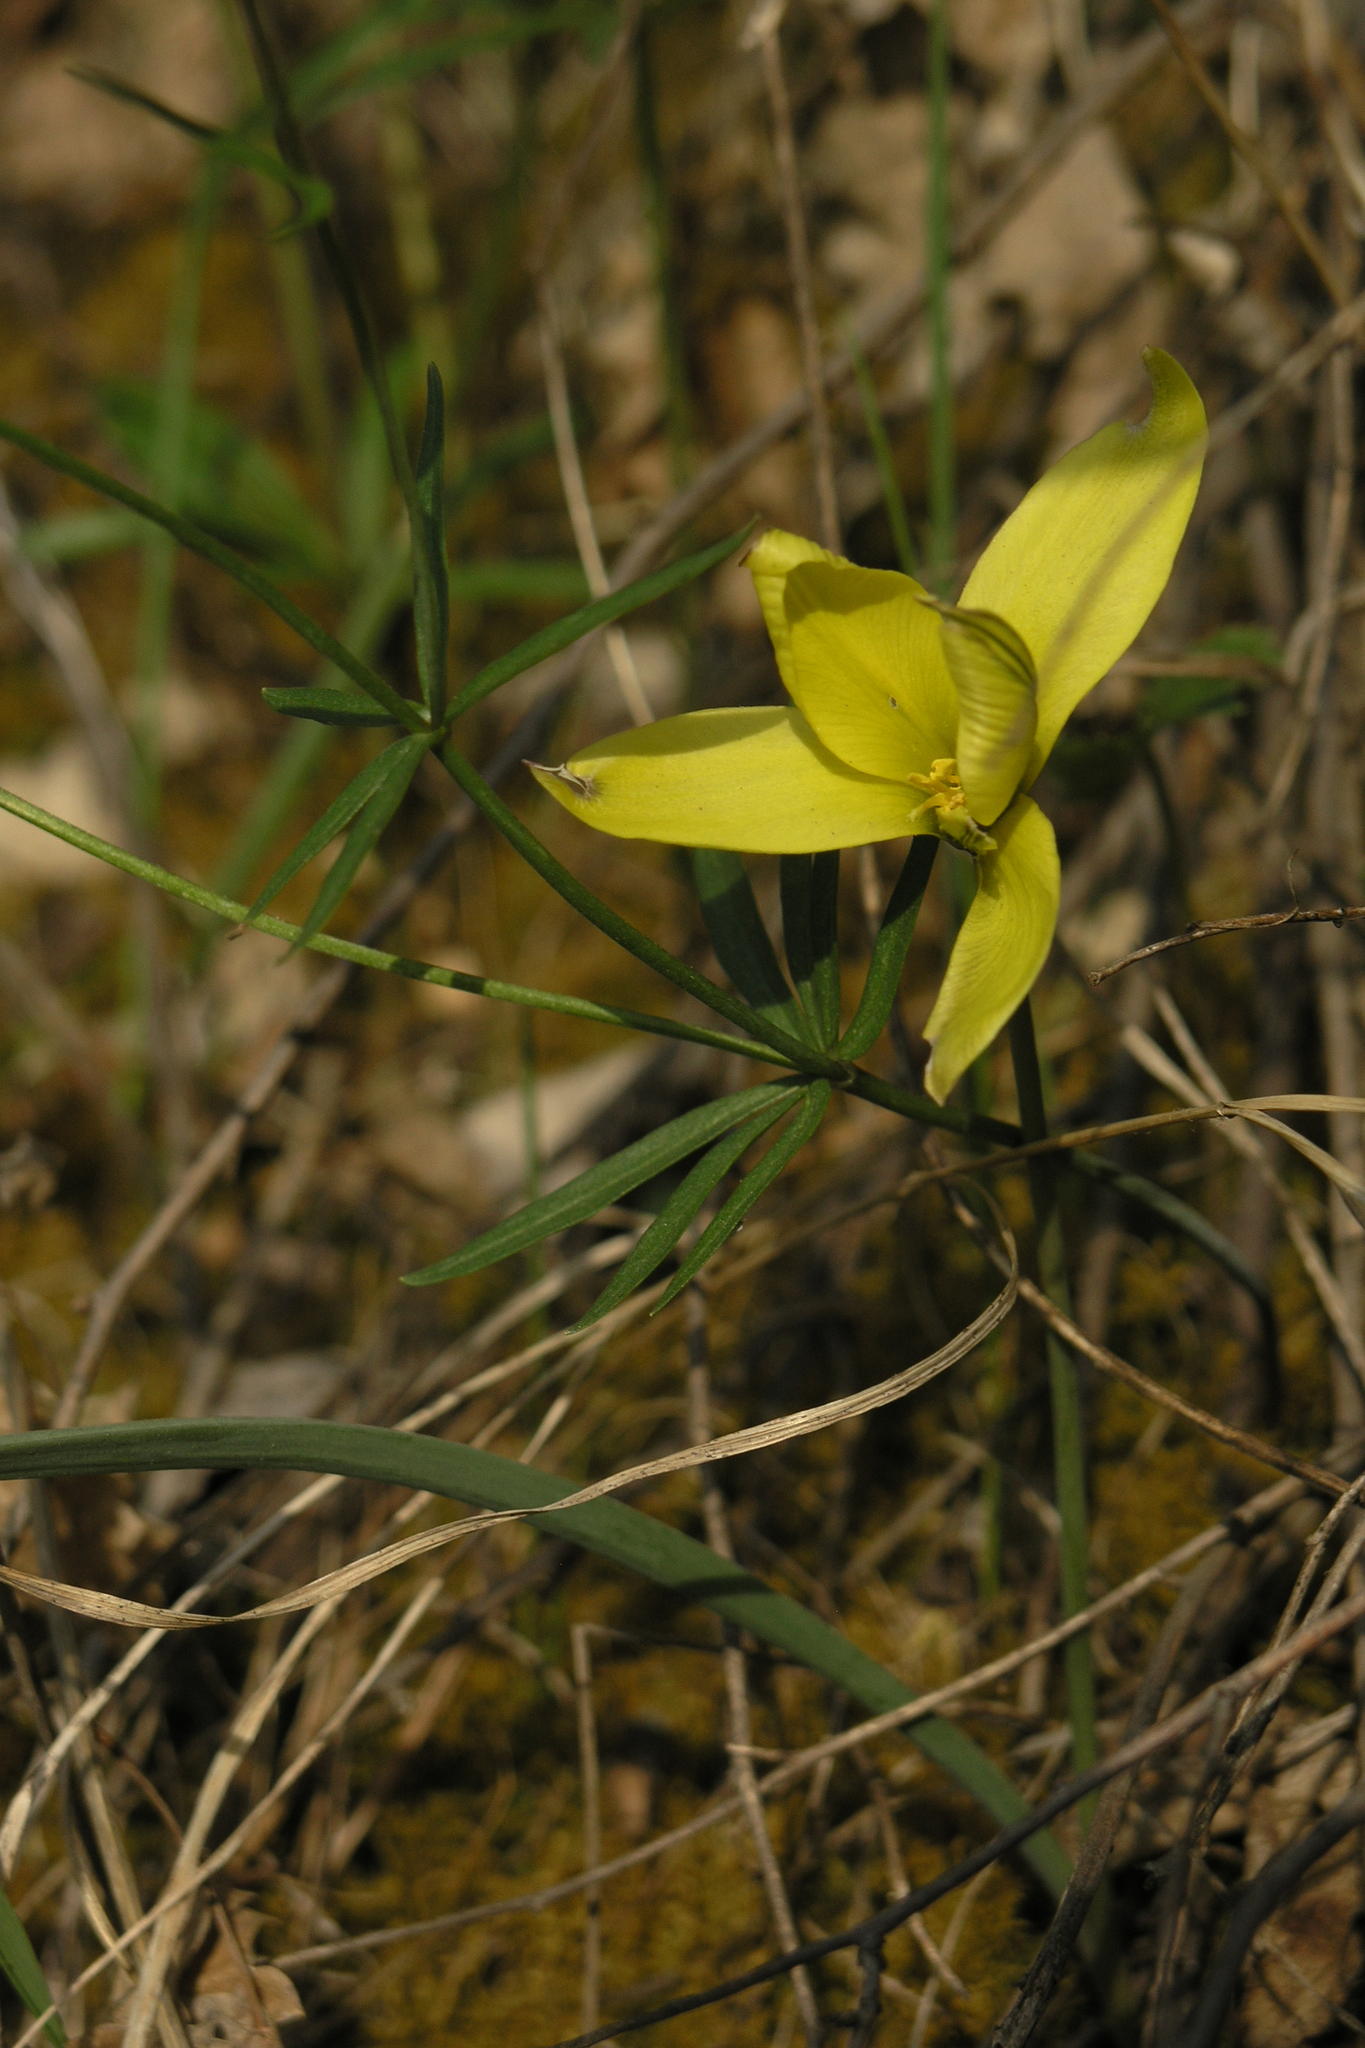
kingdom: Plantae
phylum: Tracheophyta
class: Liliopsida
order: Liliales
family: Liliaceae
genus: Tulipa
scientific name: Tulipa uniflora
